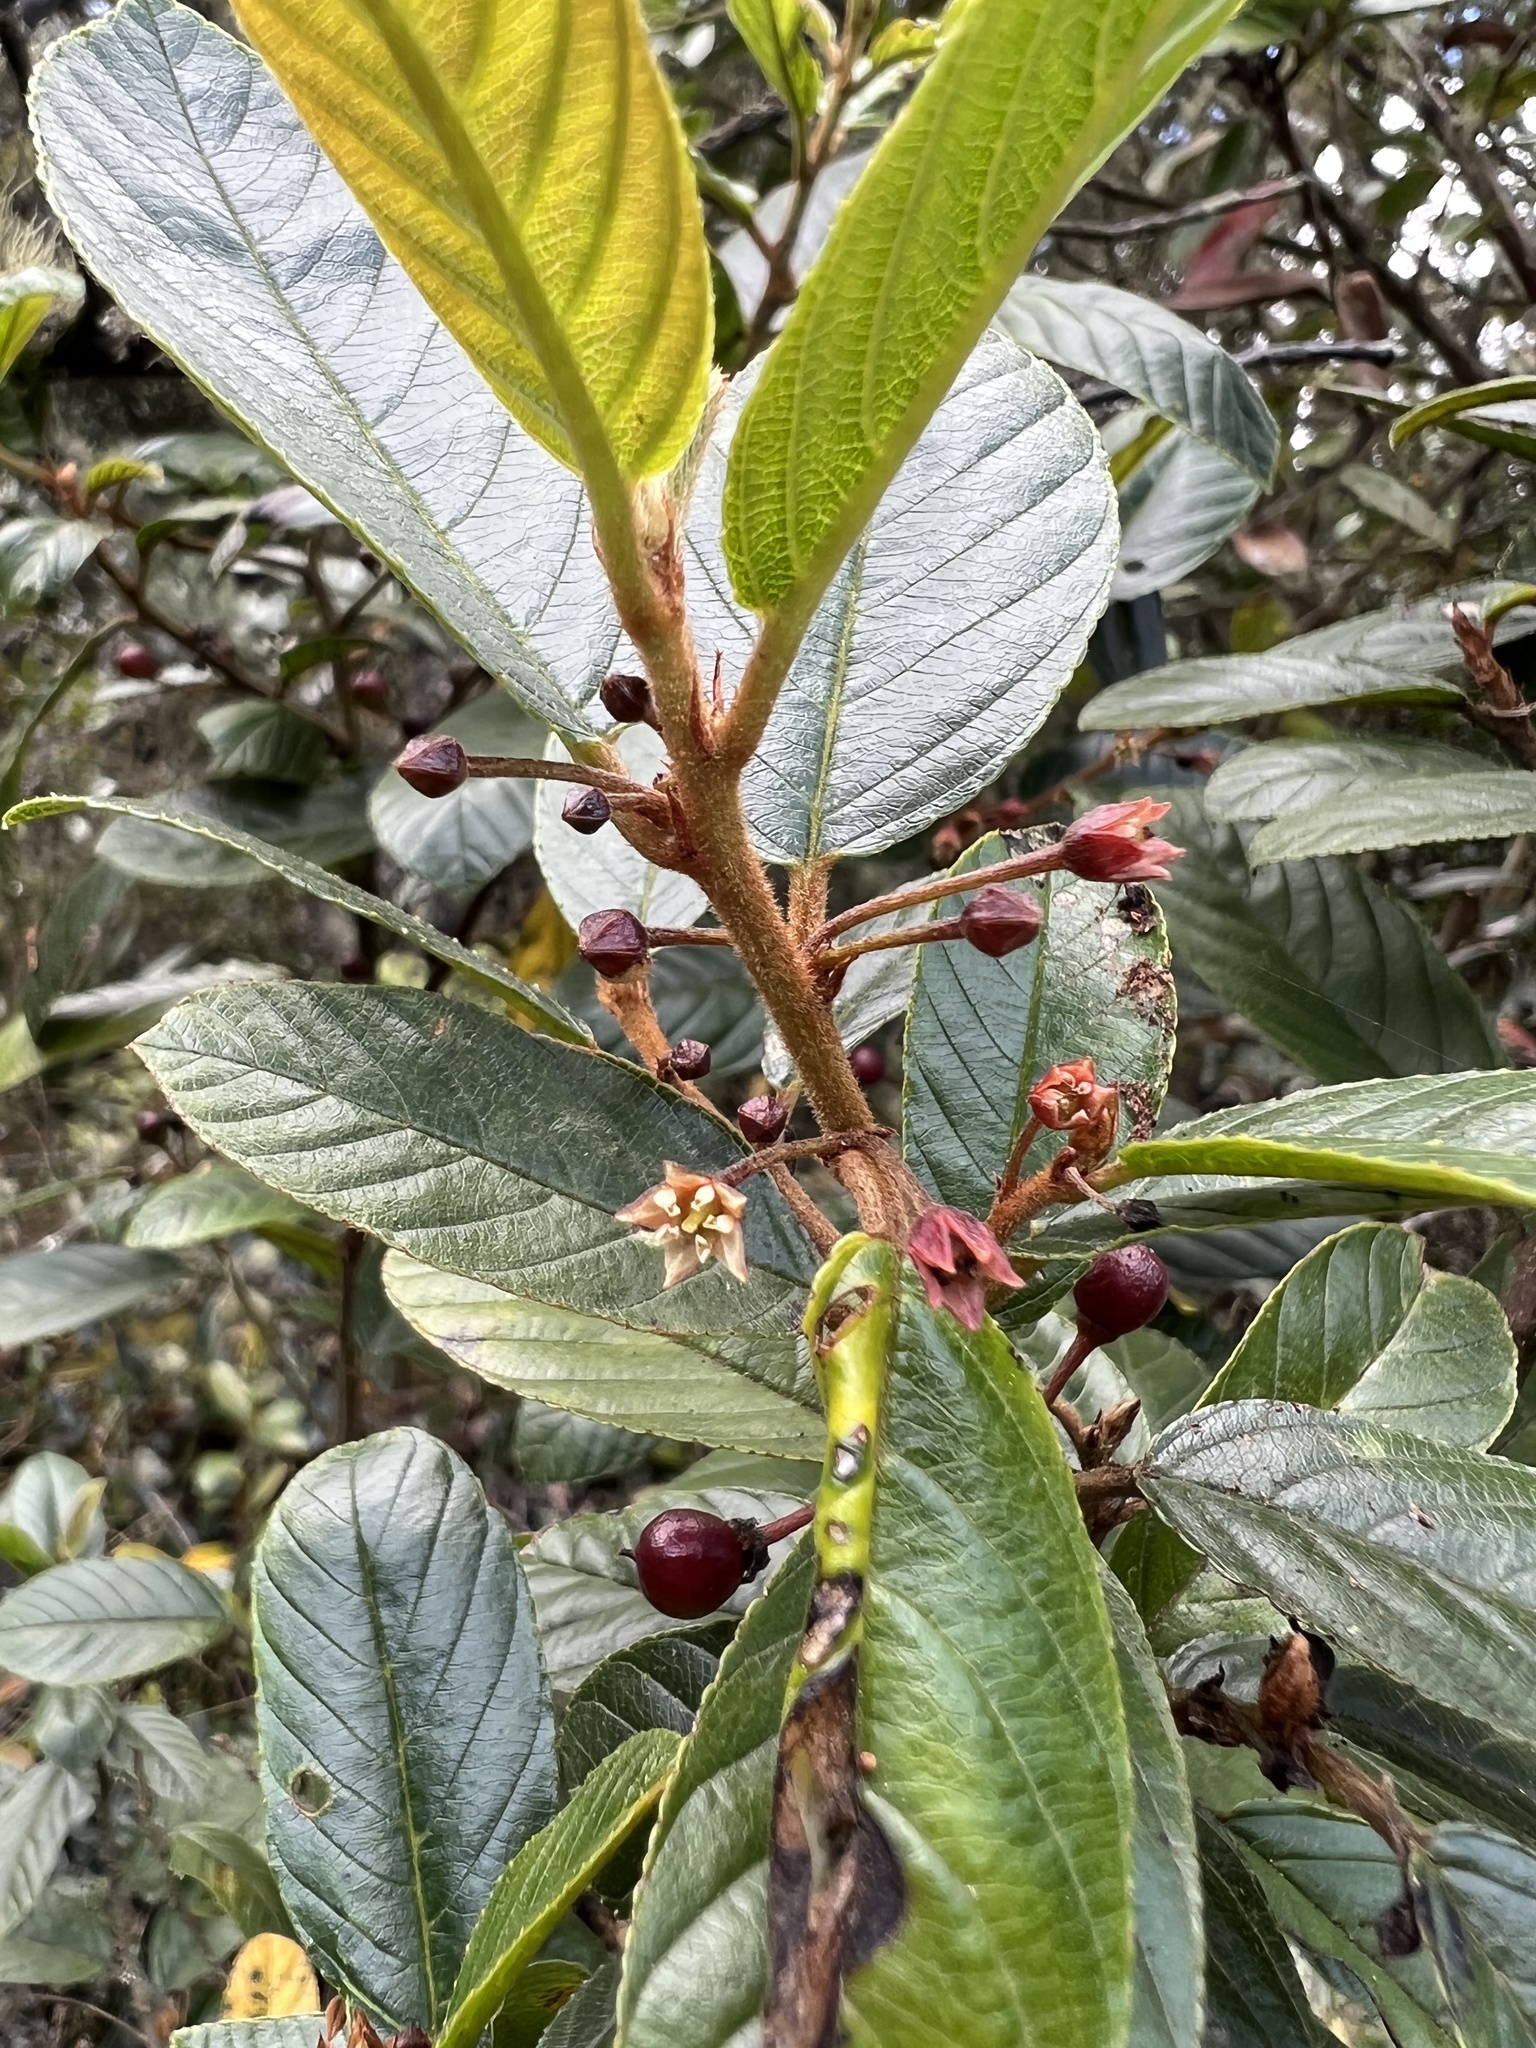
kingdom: Plantae
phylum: Tracheophyta
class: Magnoliopsida
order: Rosales
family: Rhamnaceae
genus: Frangula
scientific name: Frangula goudotiana
